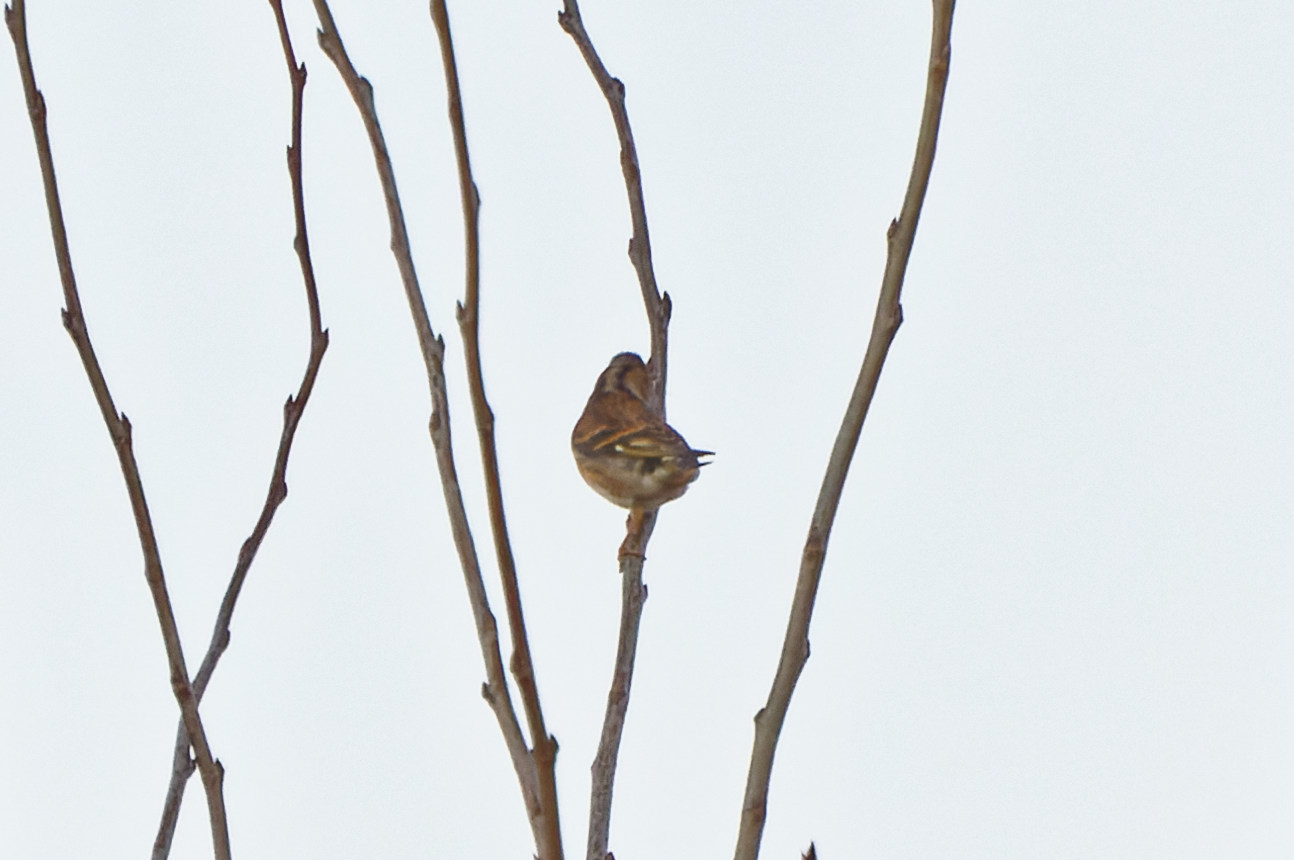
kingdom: Animalia
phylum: Chordata
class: Aves
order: Passeriformes
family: Fringillidae
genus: Fringilla
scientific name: Fringilla montifringilla
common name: Brambling
